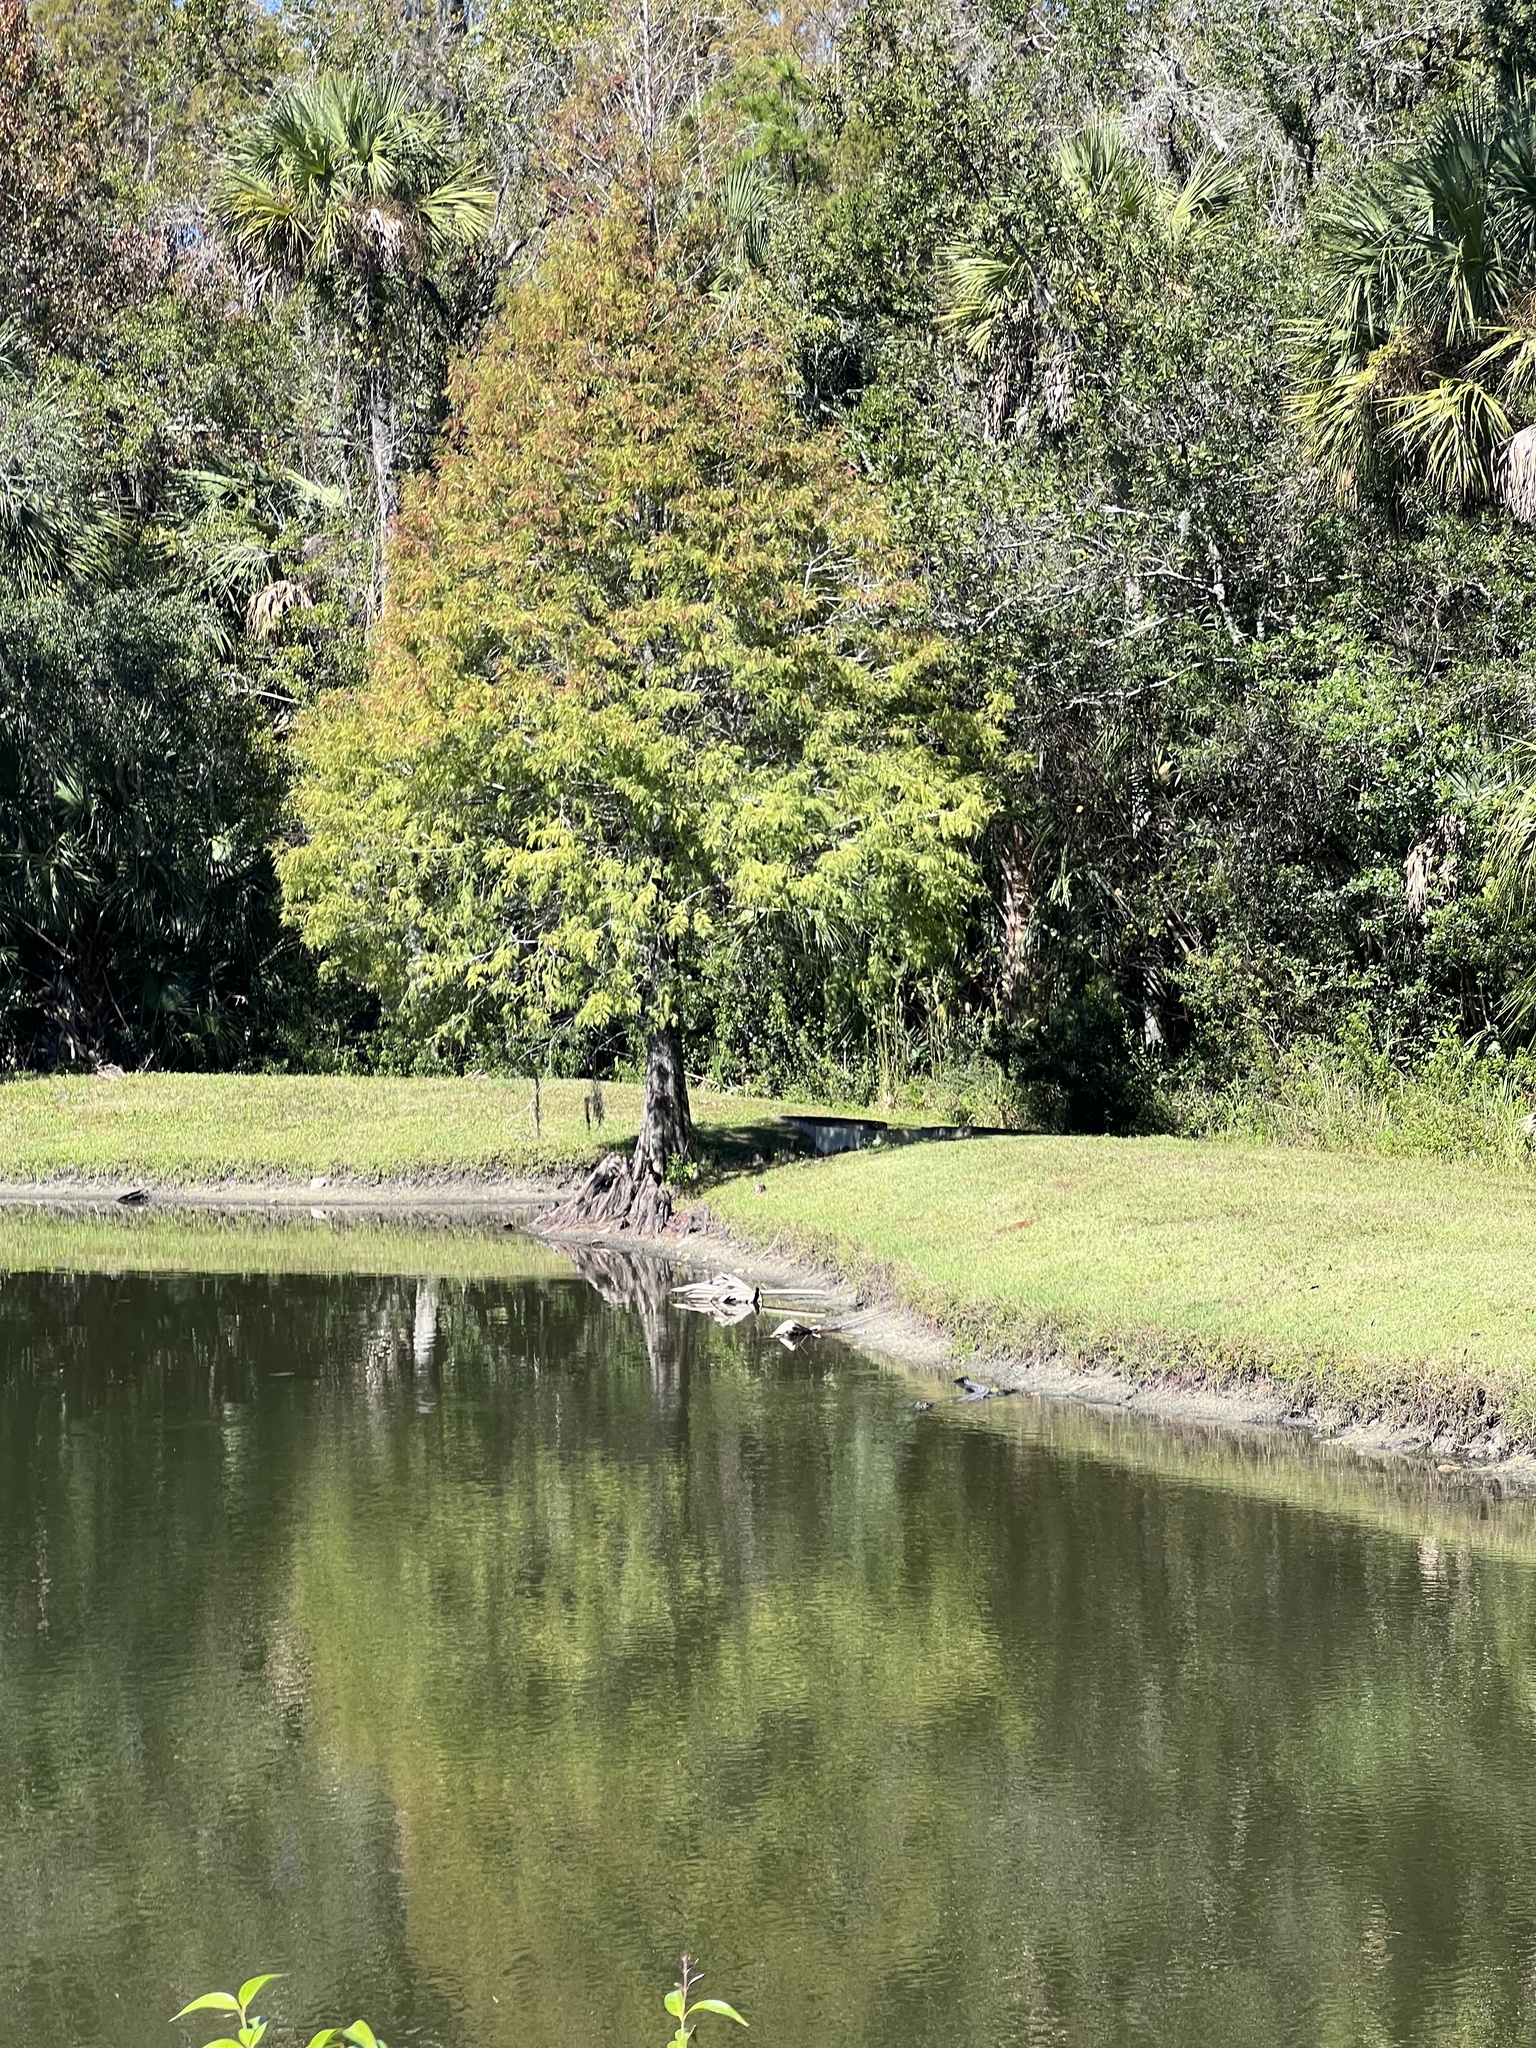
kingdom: Animalia
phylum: Chordata
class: Crocodylia
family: Alligatoridae
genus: Alligator
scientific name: Alligator mississippiensis
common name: American alligator
